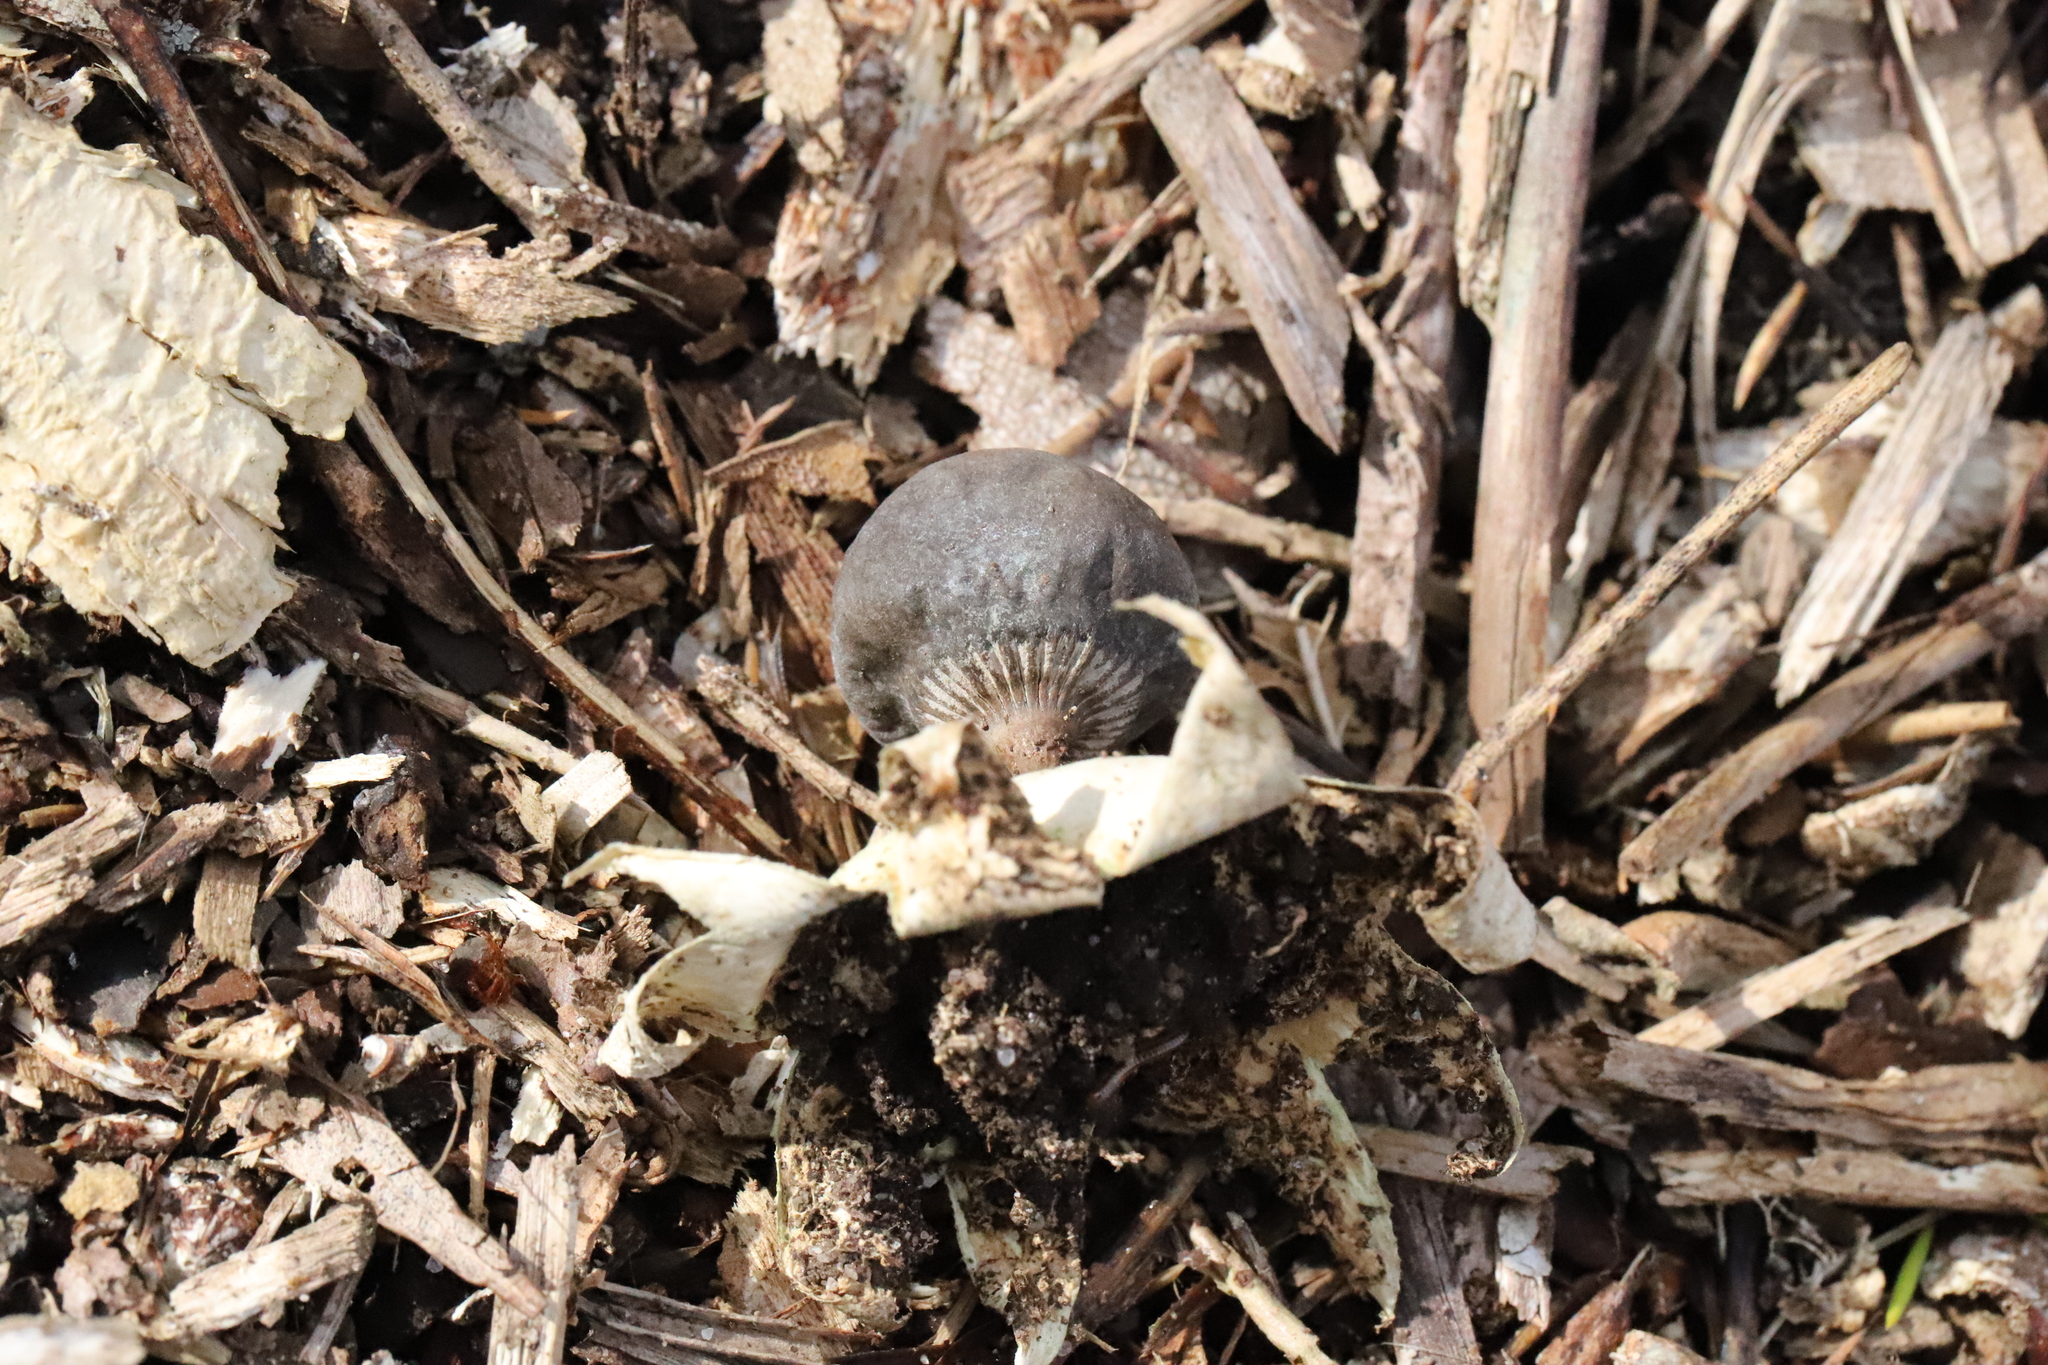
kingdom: Fungi
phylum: Basidiomycota
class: Agaricomycetes
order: Geastrales
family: Geastraceae
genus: Geastrum
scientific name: Geastrum pectinatum
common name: Beaked earthstar
